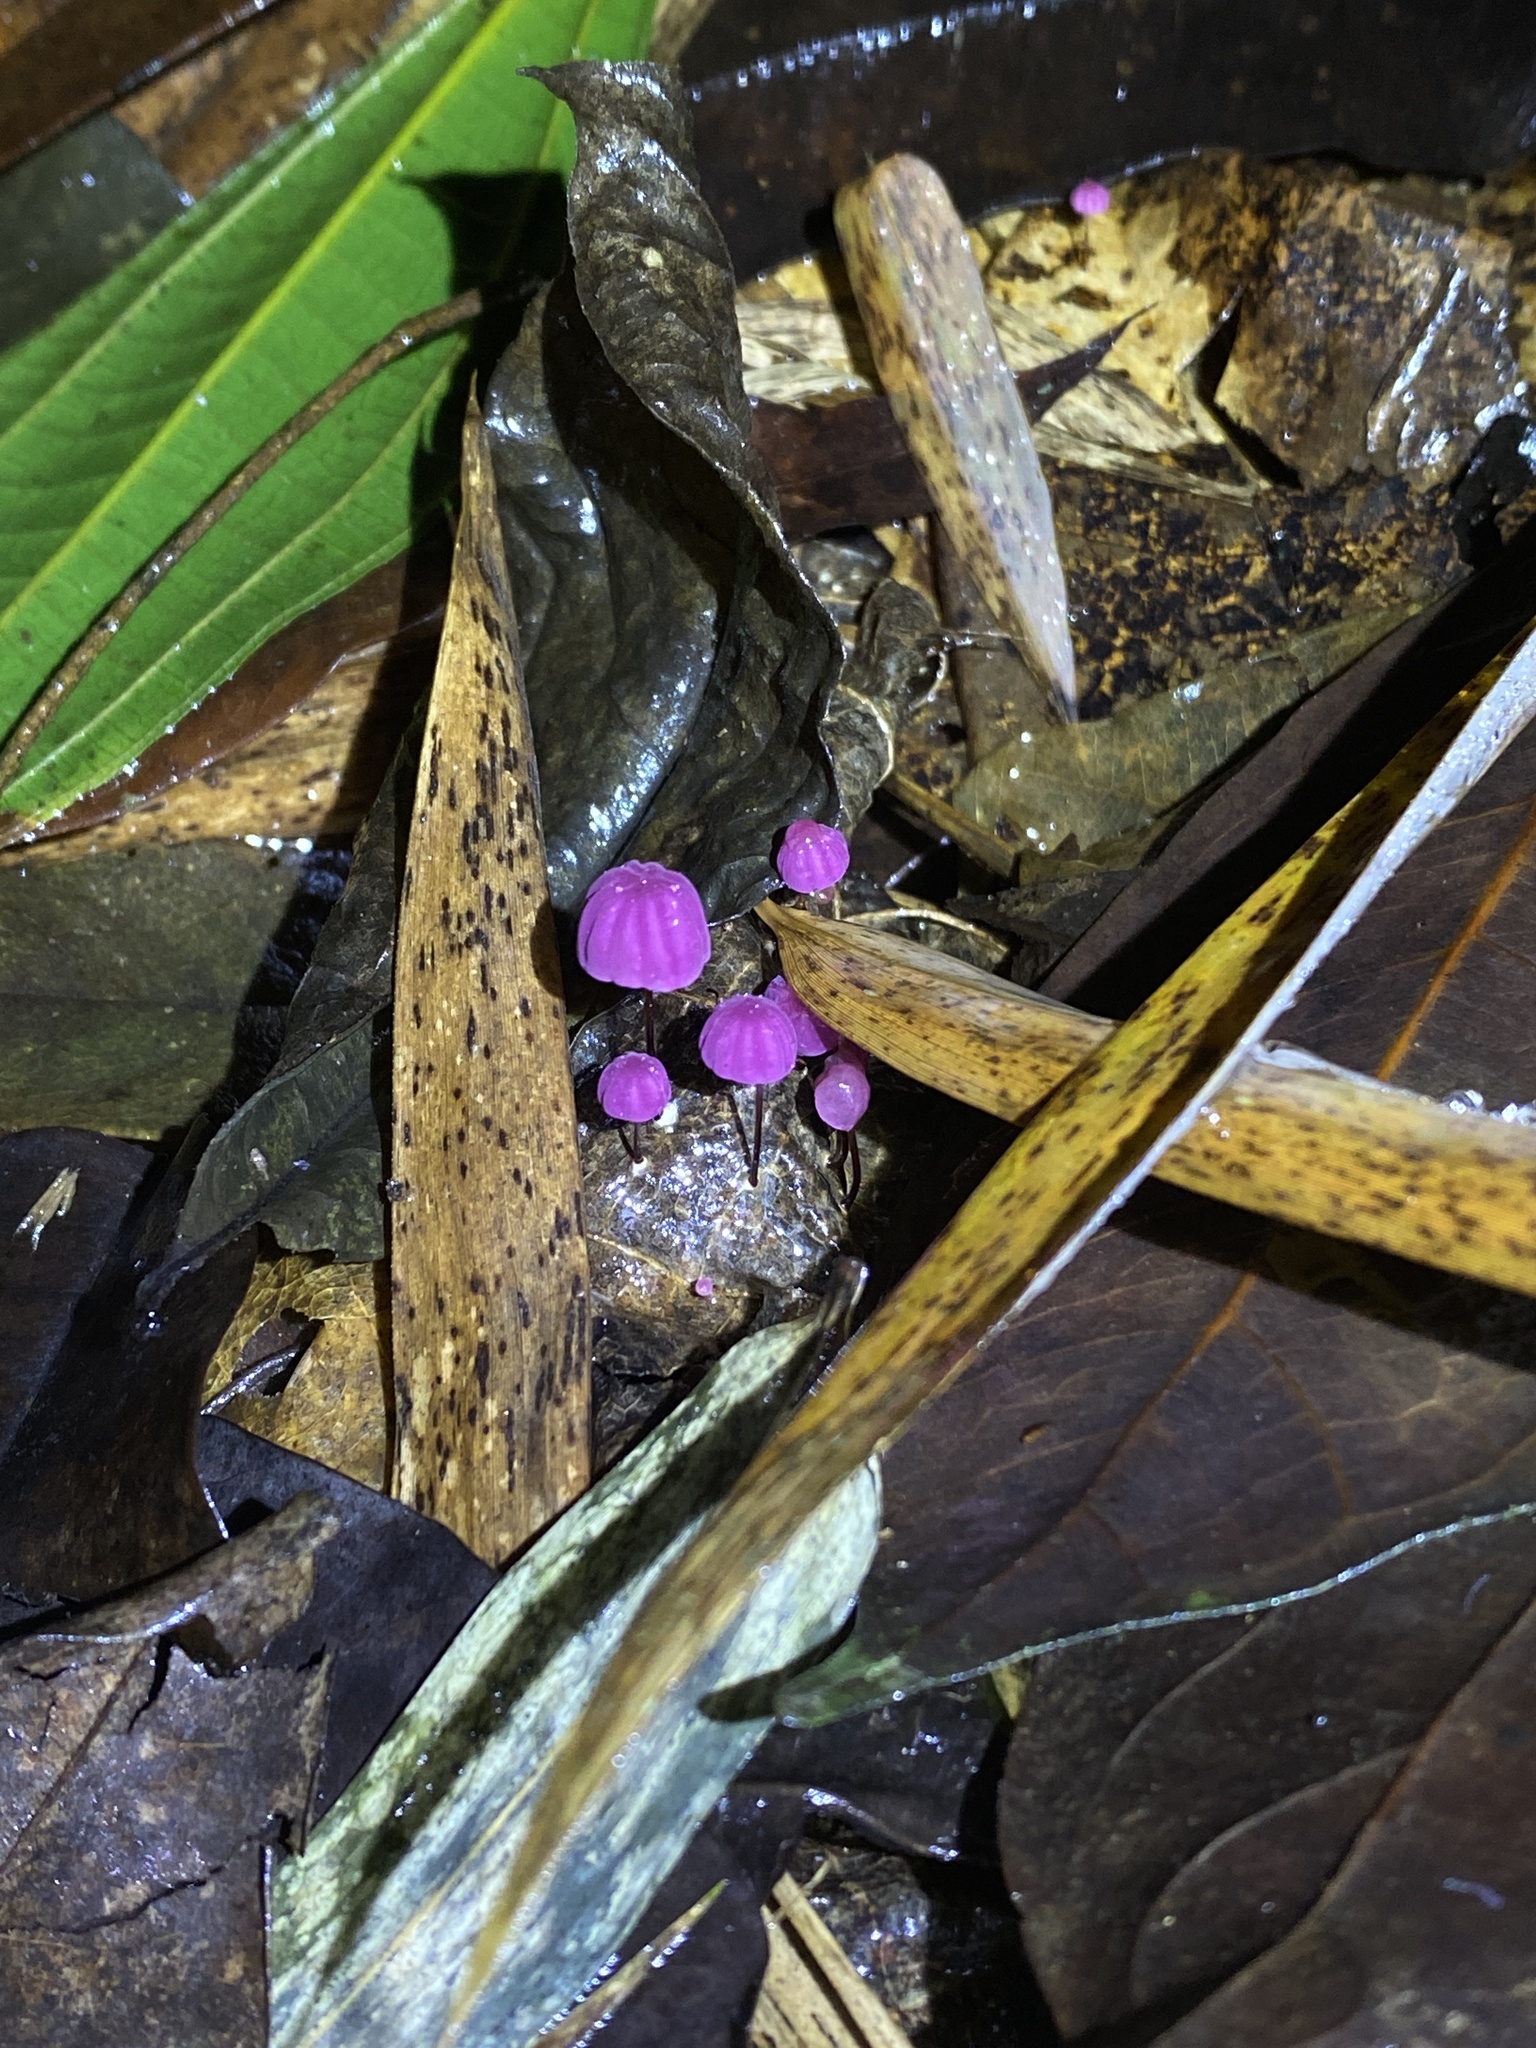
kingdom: Fungi
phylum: Basidiomycota
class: Agaricomycetes
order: Agaricales
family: Marasmiaceae
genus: Marasmius
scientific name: Marasmius haematocephalus
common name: Purple pinwheel
